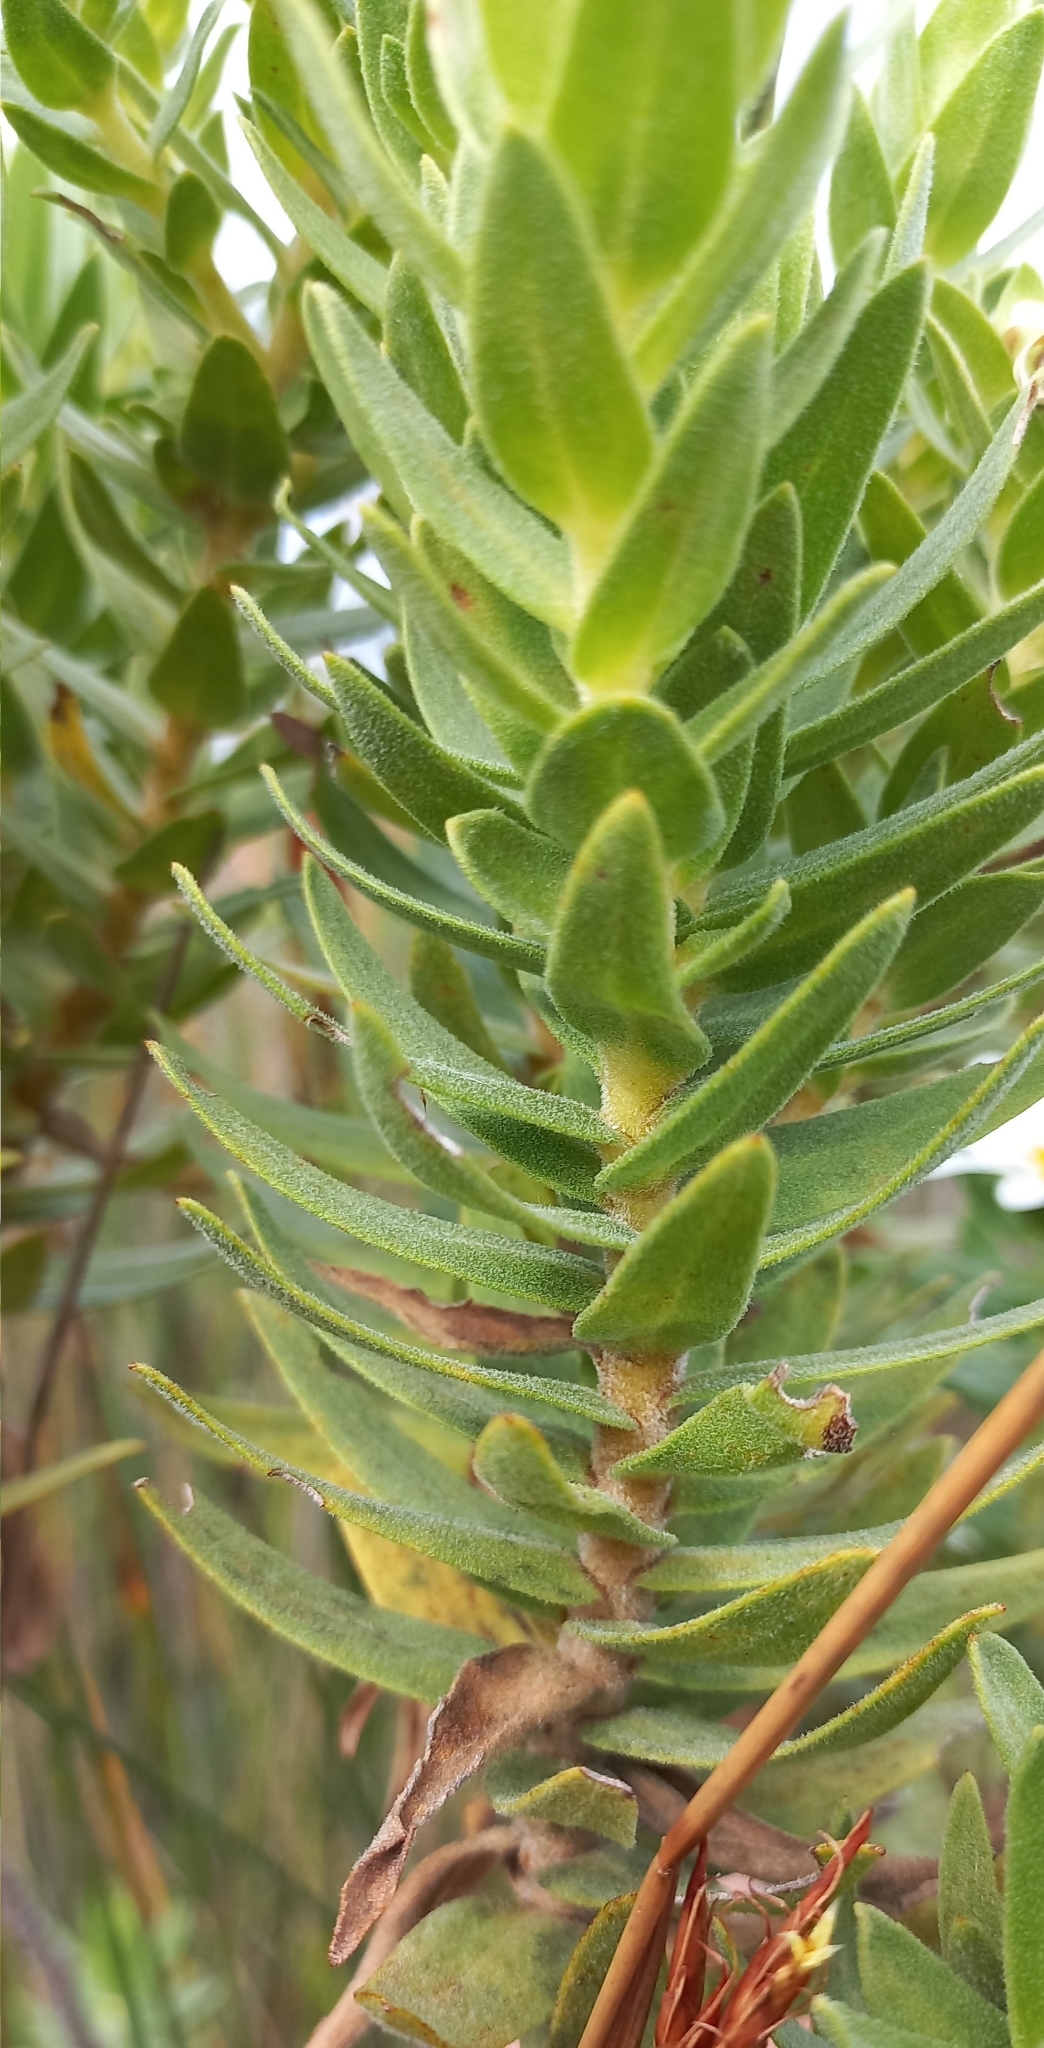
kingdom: Plantae
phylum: Tracheophyta
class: Magnoliopsida
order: Asterales
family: Asteraceae
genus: Osmitopsis
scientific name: Osmitopsis asteriscoides
